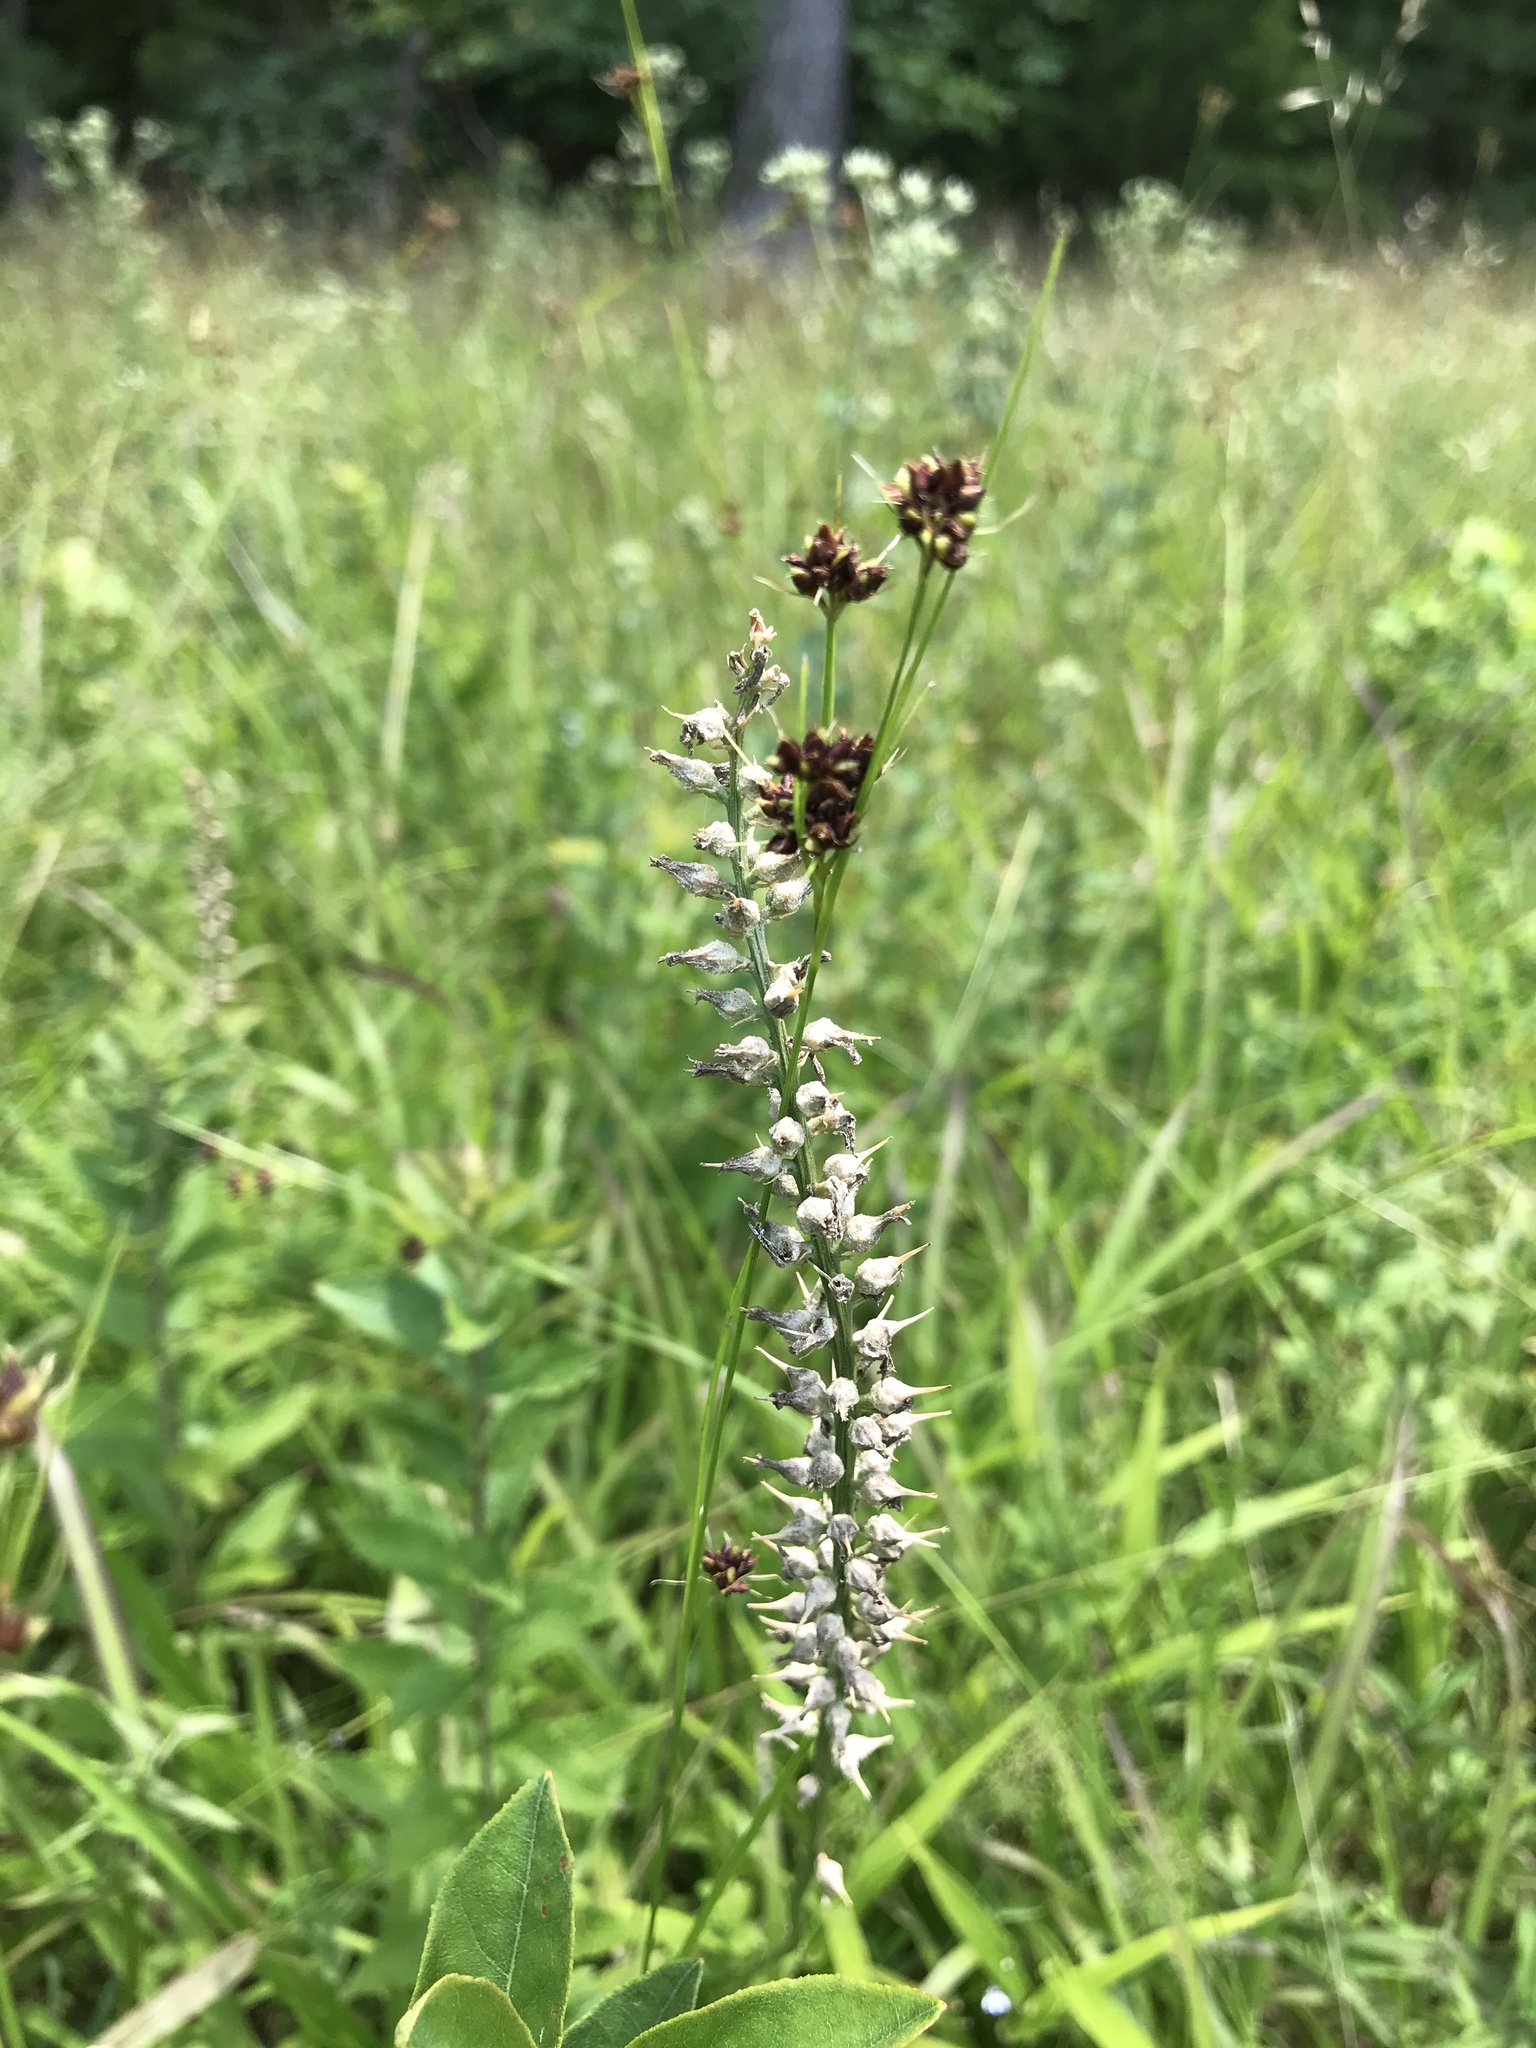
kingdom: Plantae
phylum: Tracheophyta
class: Liliopsida
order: Dioscoreales
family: Nartheciaceae
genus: Aletris
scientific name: Aletris farinosa
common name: Colicroot
